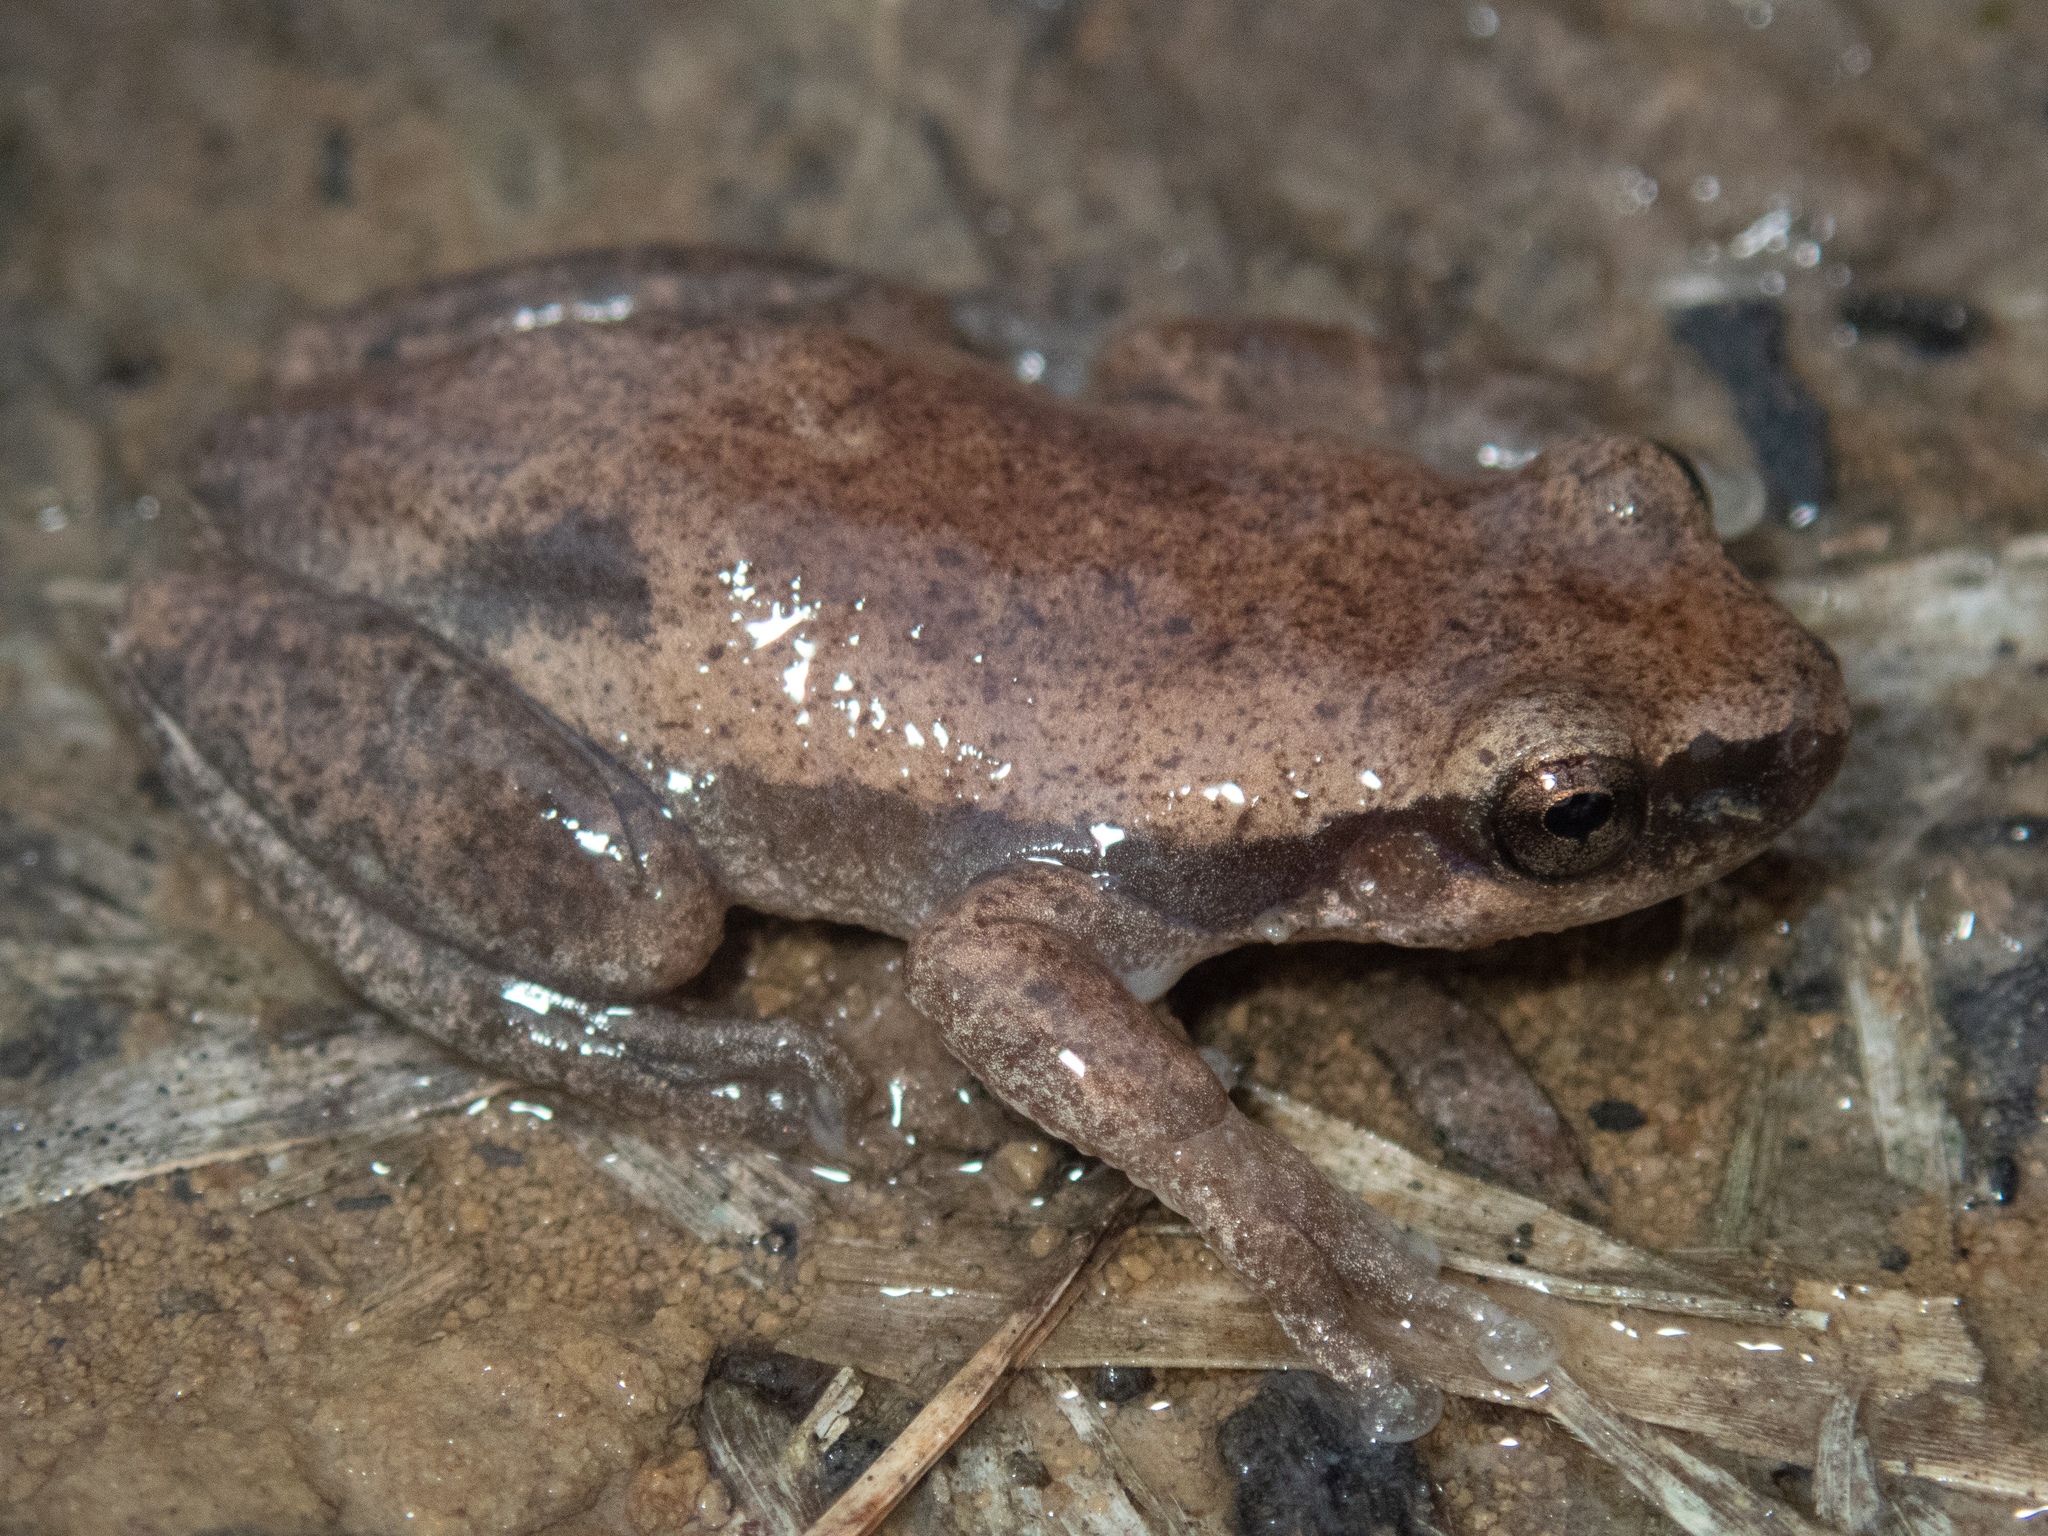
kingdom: Animalia
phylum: Chordata
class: Amphibia
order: Anura
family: Pelodryadidae
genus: Litoria
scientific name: Litoria rubella
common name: Desert tree frog
